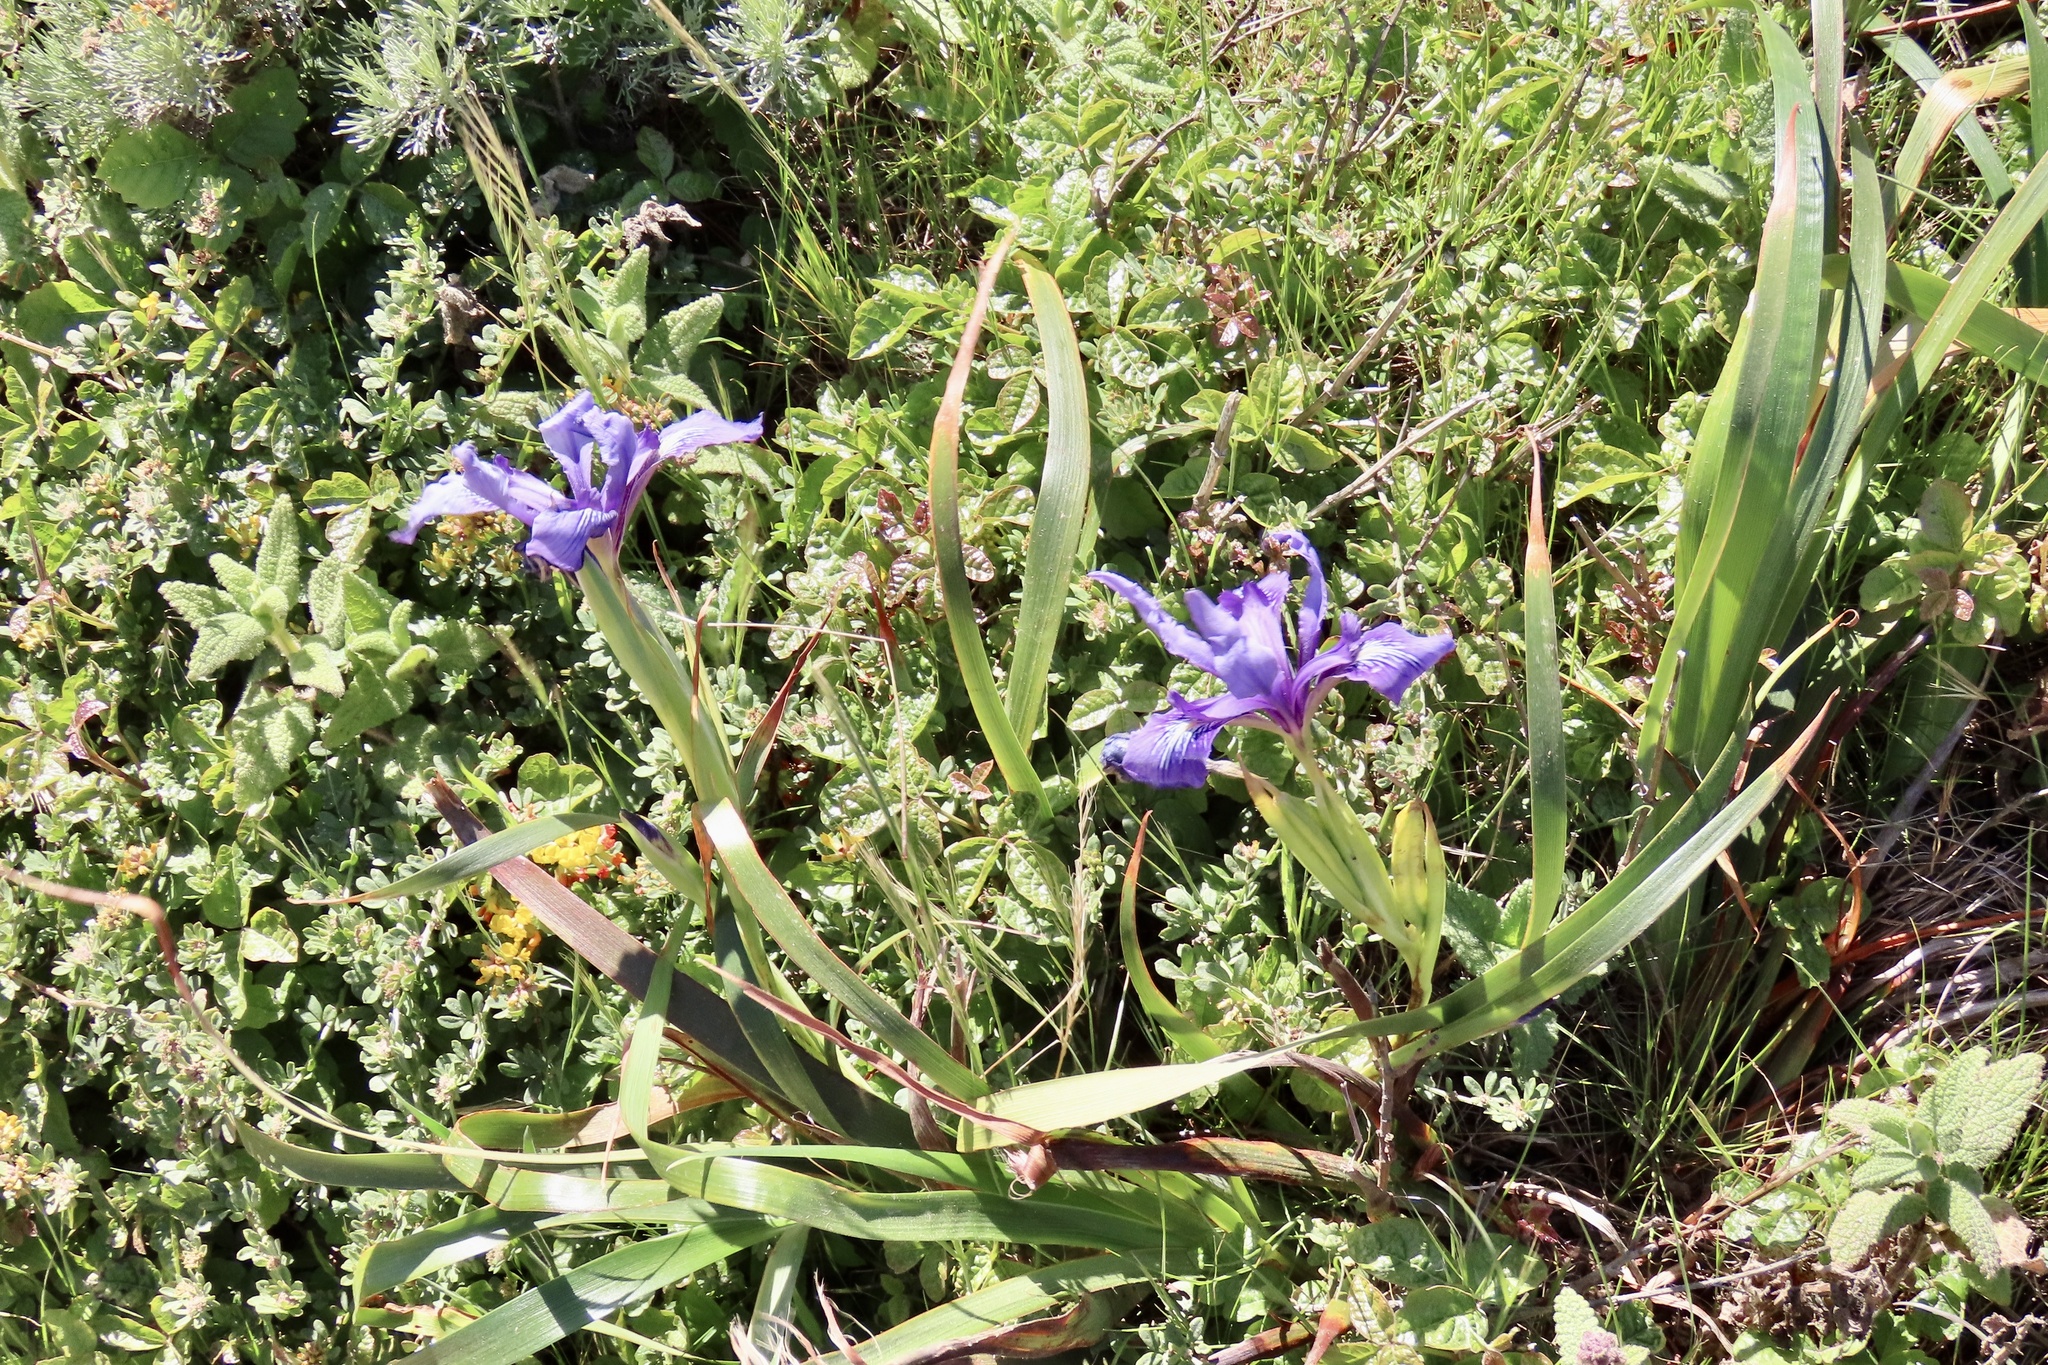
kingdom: Plantae
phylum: Tracheophyta
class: Liliopsida
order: Asparagales
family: Iridaceae
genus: Iris
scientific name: Iris douglasiana
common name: Marin iris
